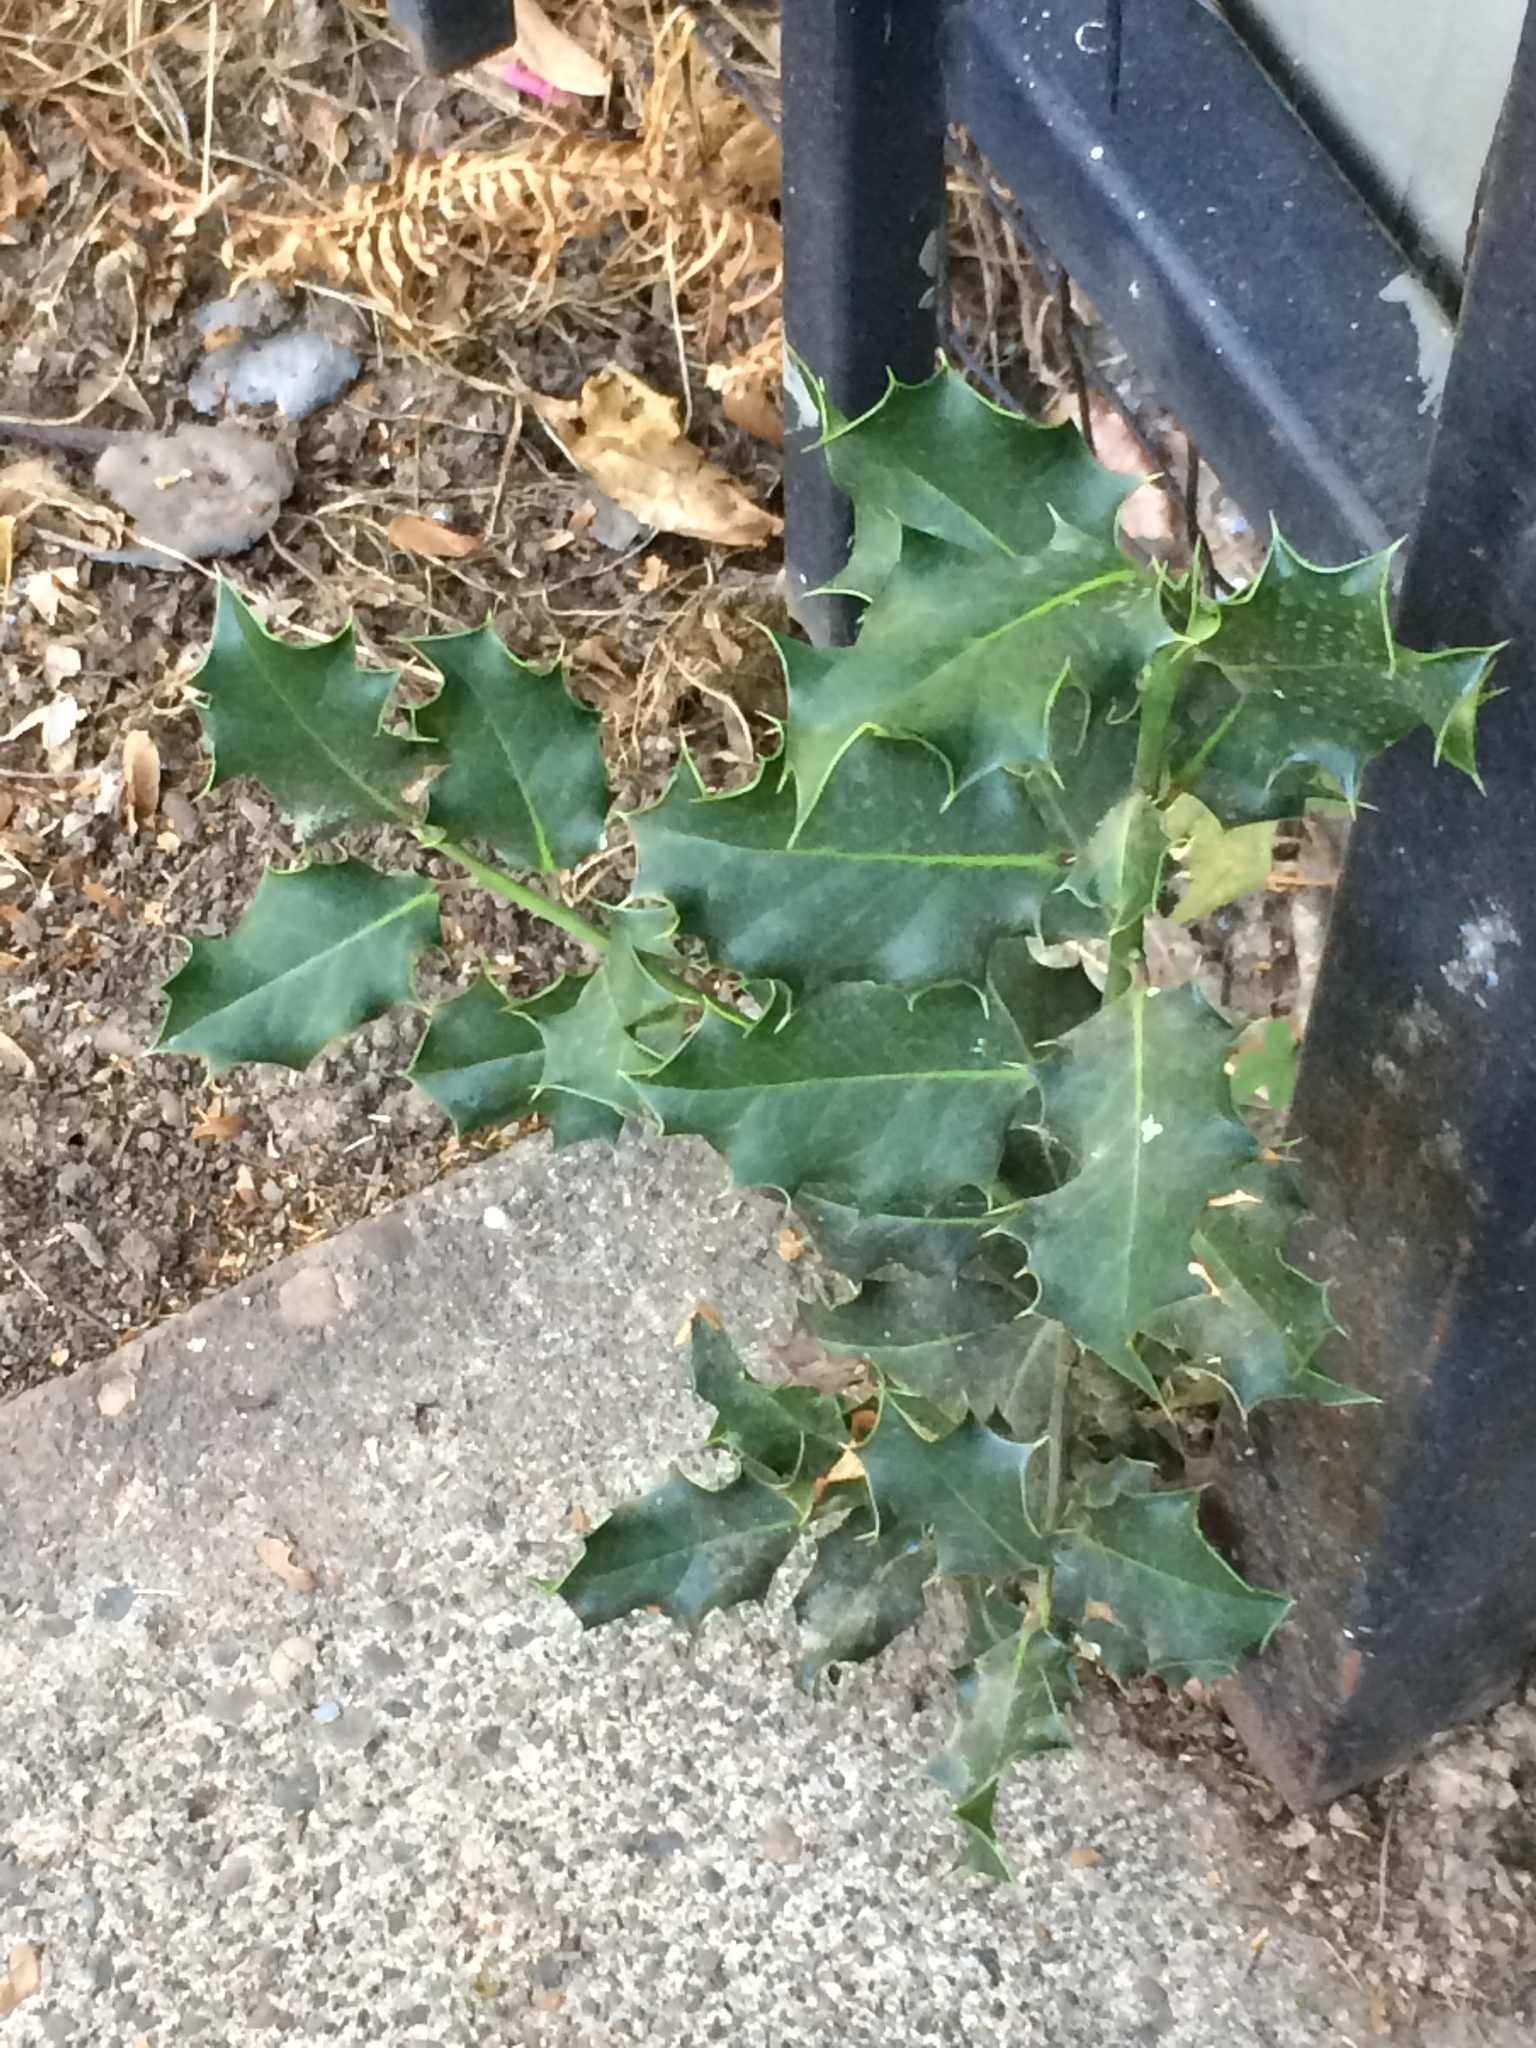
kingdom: Plantae
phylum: Tracheophyta
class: Magnoliopsida
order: Aquifoliales
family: Aquifoliaceae
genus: Ilex
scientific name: Ilex aquifolium
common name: English holly
